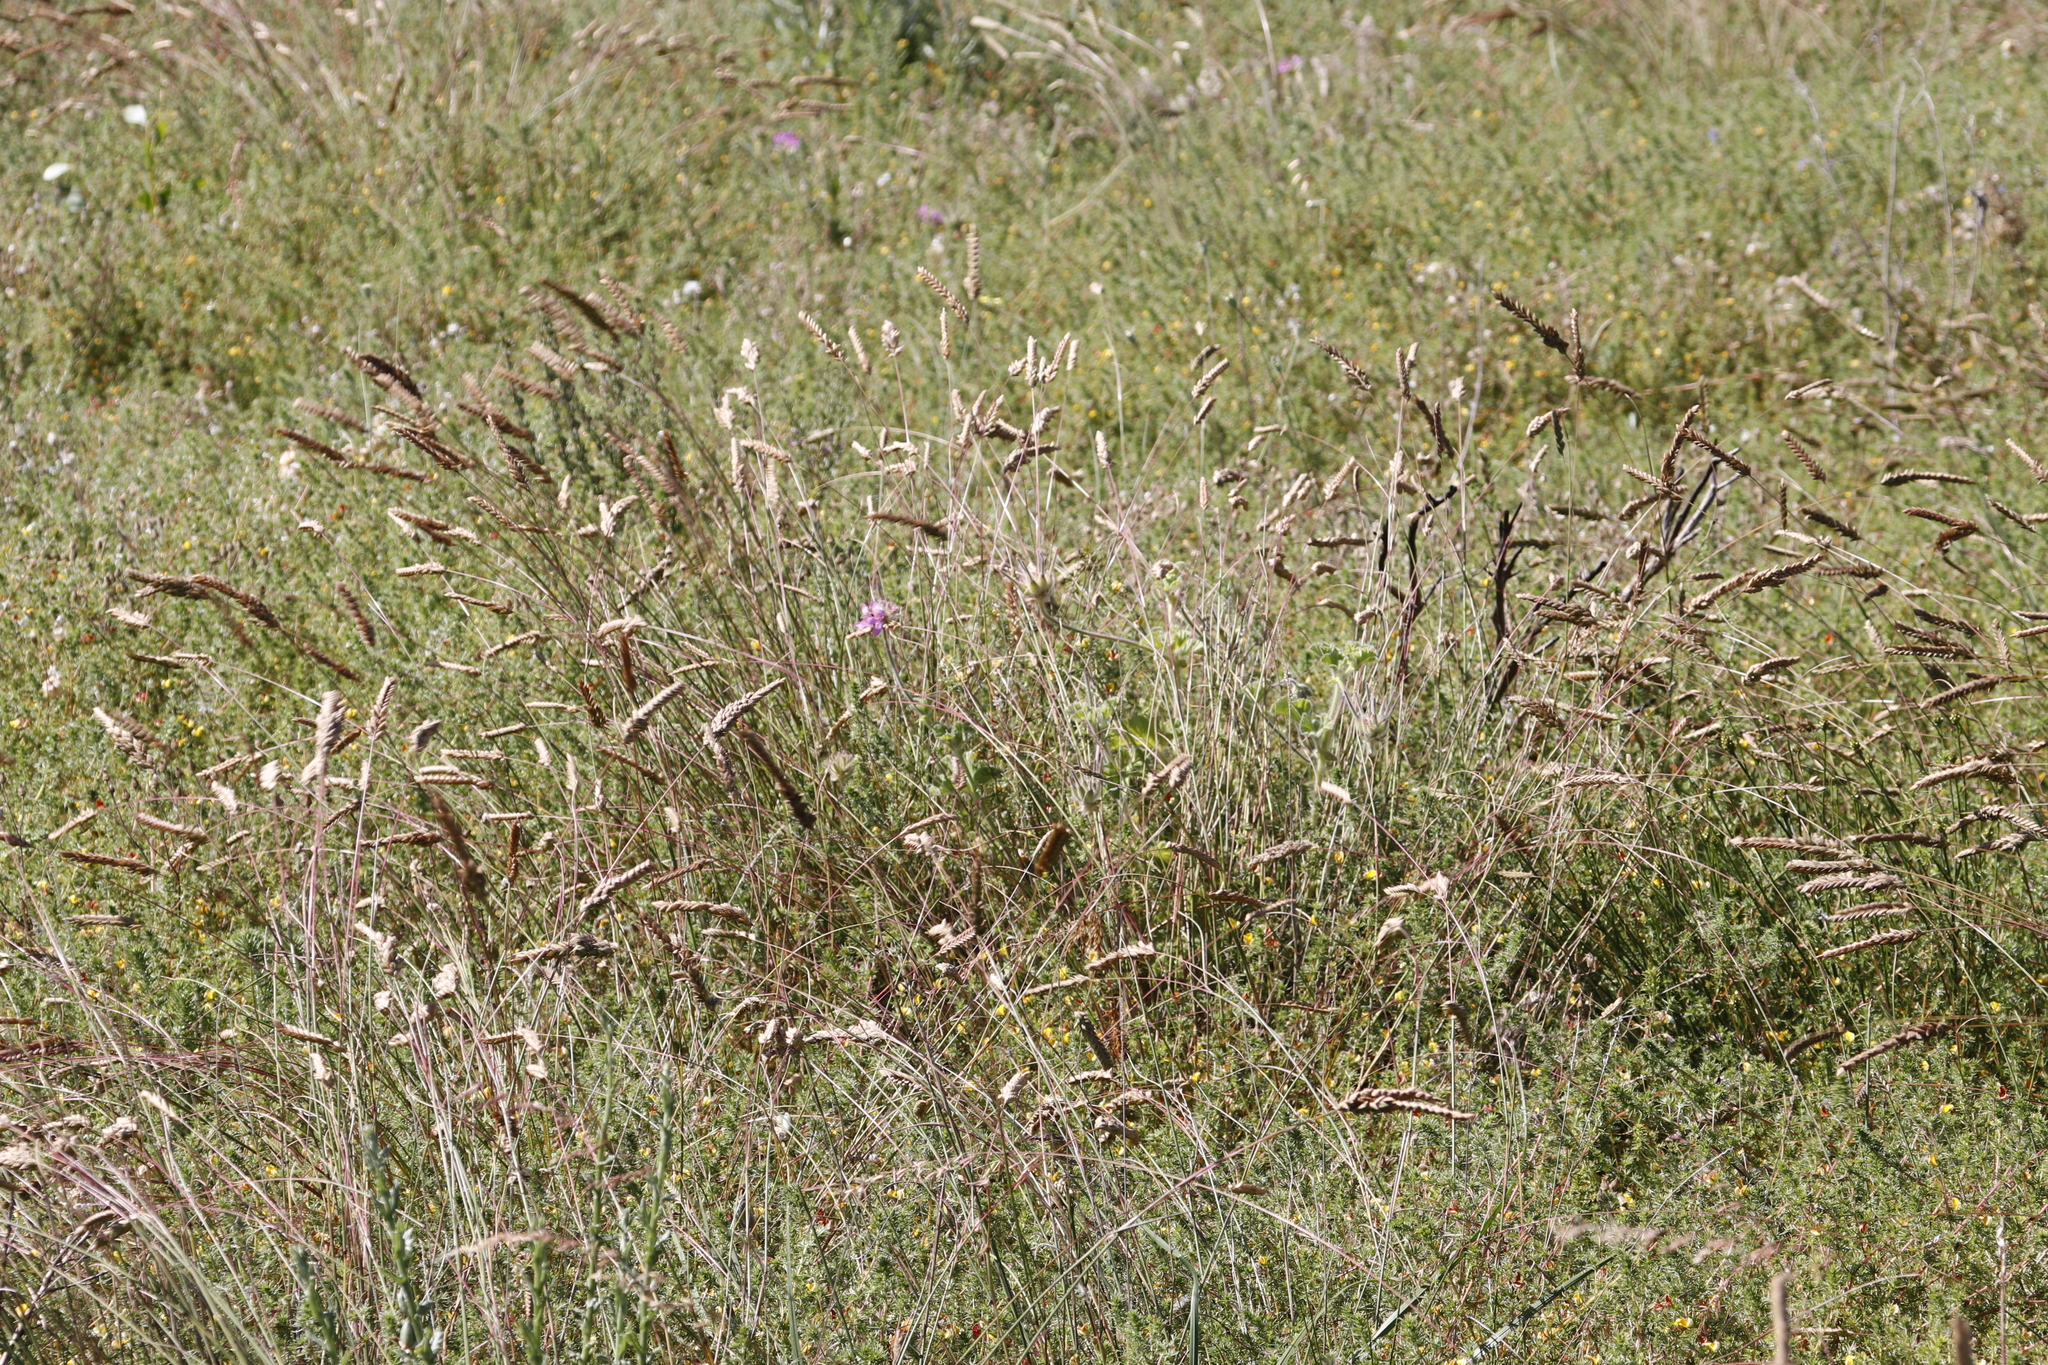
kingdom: Plantae
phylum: Tracheophyta
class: Liliopsida
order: Poales
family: Poaceae
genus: Tribolium
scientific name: Tribolium uniolae
